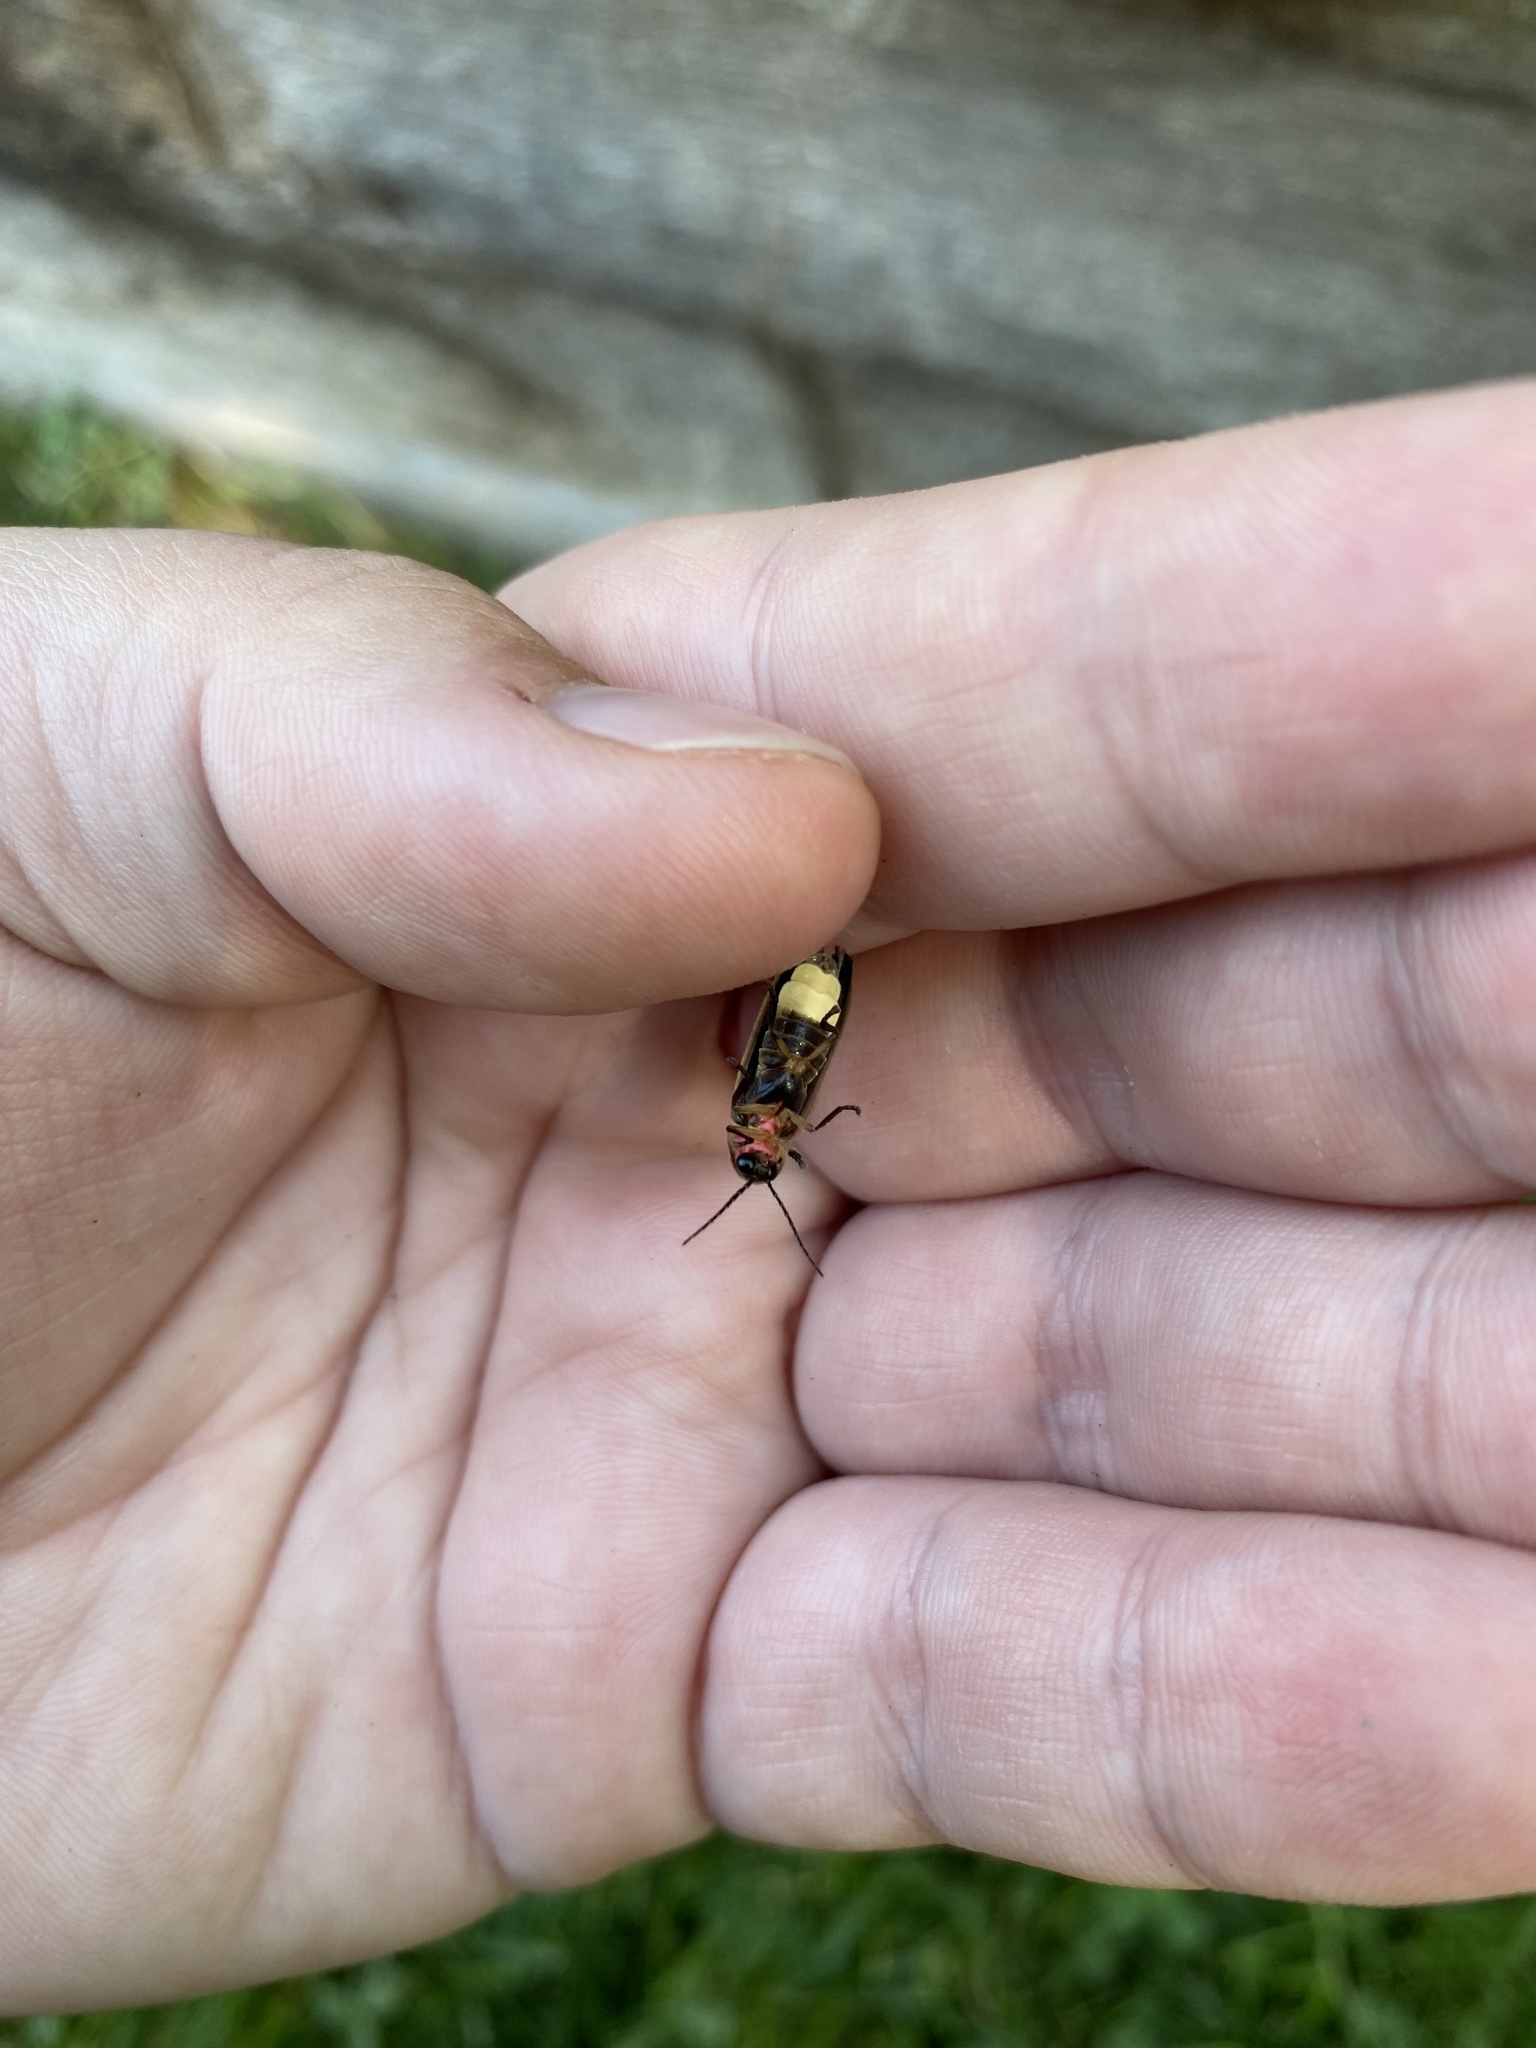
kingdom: Animalia
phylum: Arthropoda
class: Insecta
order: Coleoptera
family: Lampyridae
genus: Photinus
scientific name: Photinus pyralis
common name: Big dipper firefly
